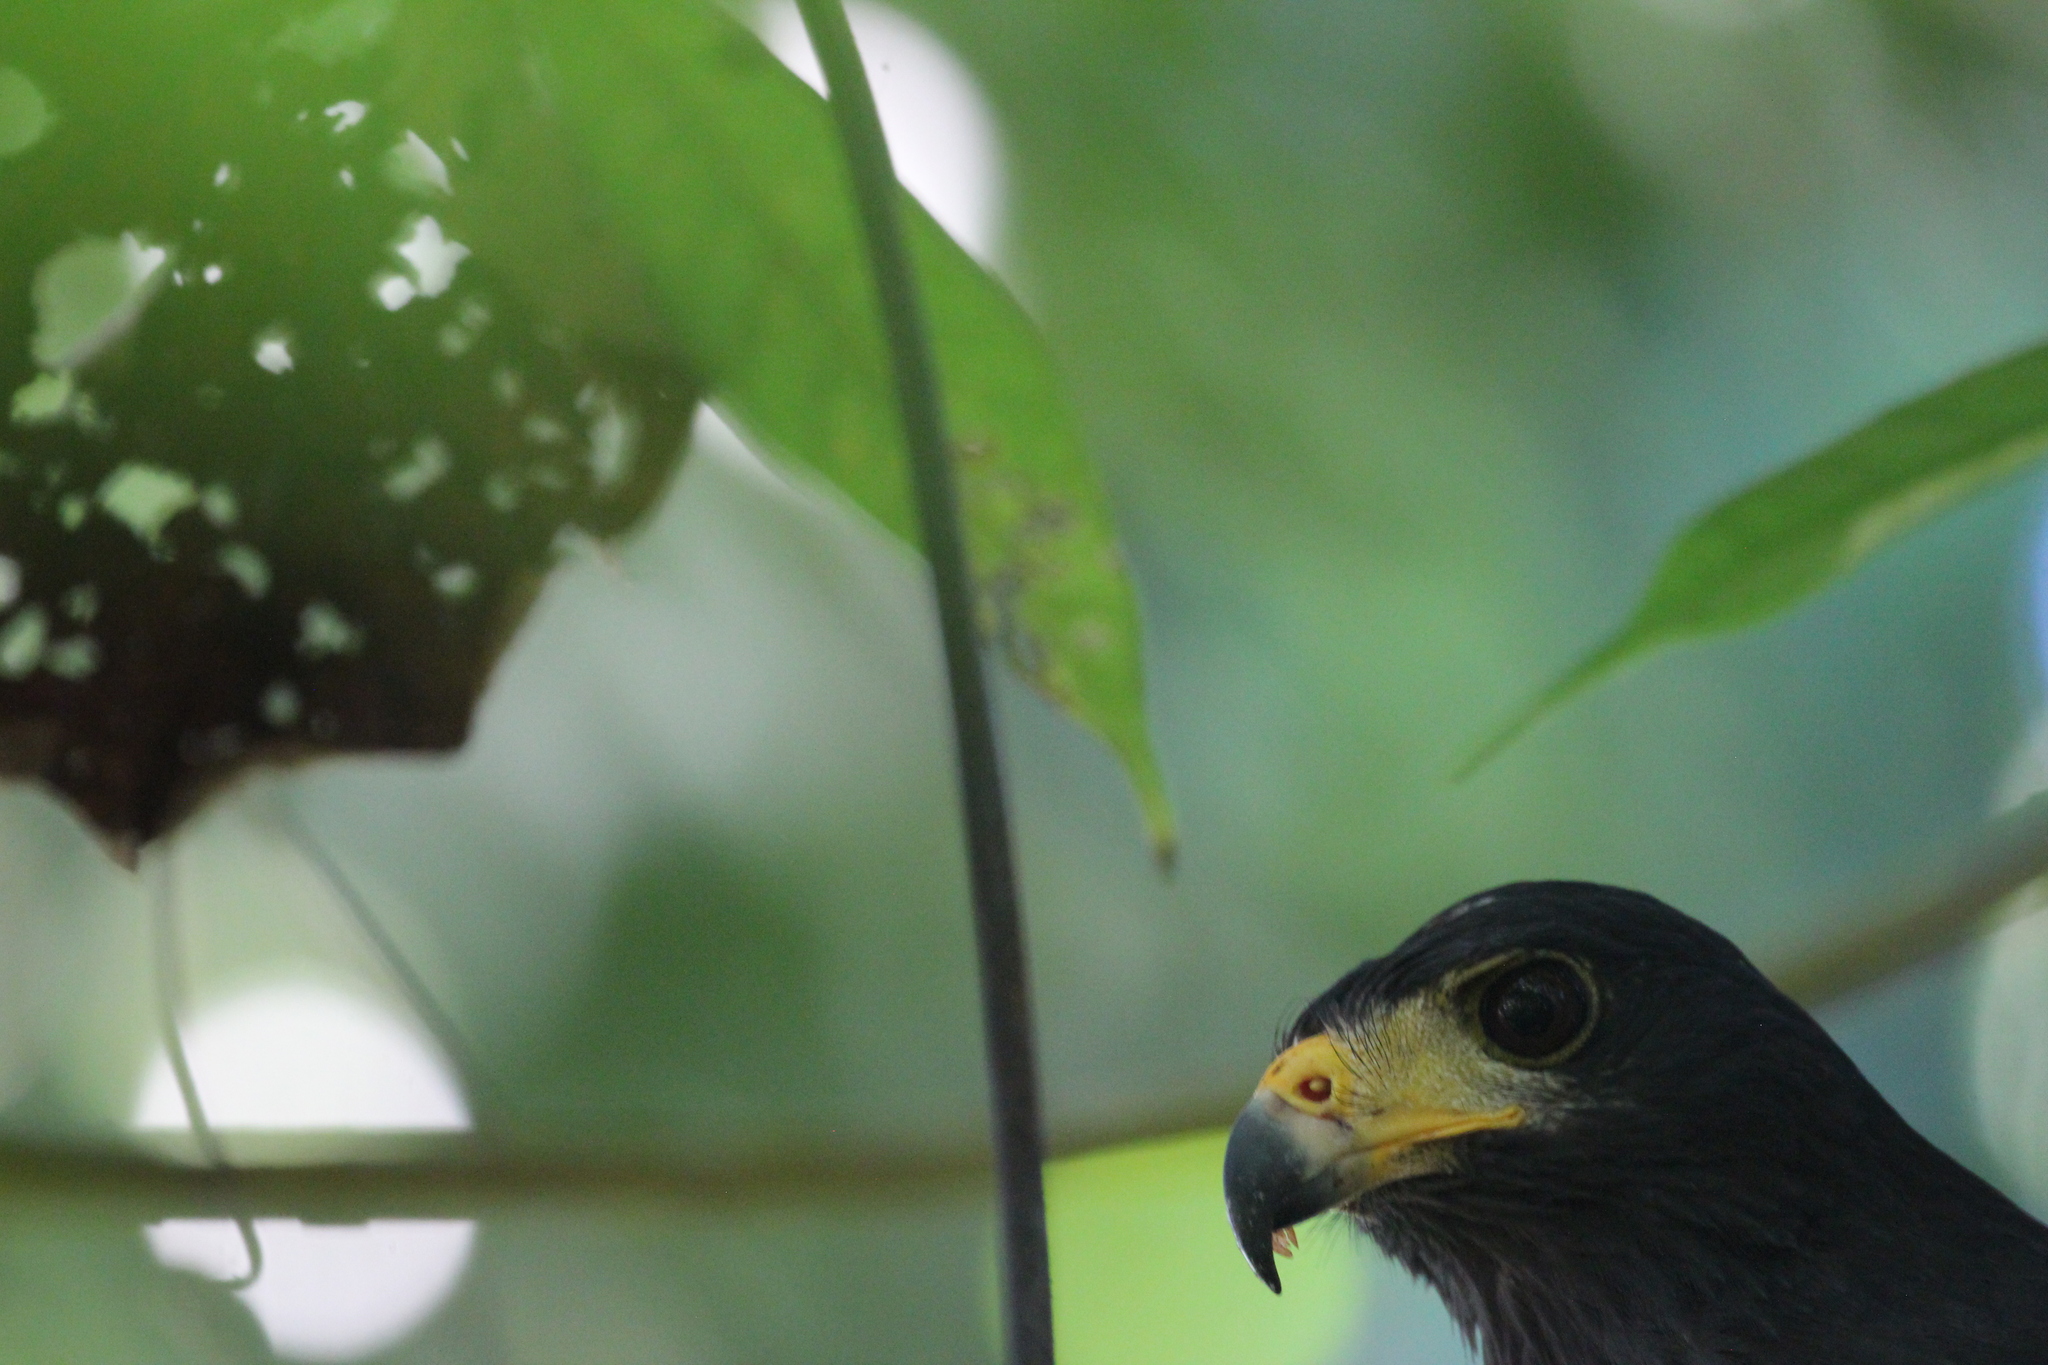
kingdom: Animalia
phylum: Chordata
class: Aves
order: Accipitriformes
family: Accipitridae
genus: Buteogallus
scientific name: Buteogallus anthracinus
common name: Common black hawk
